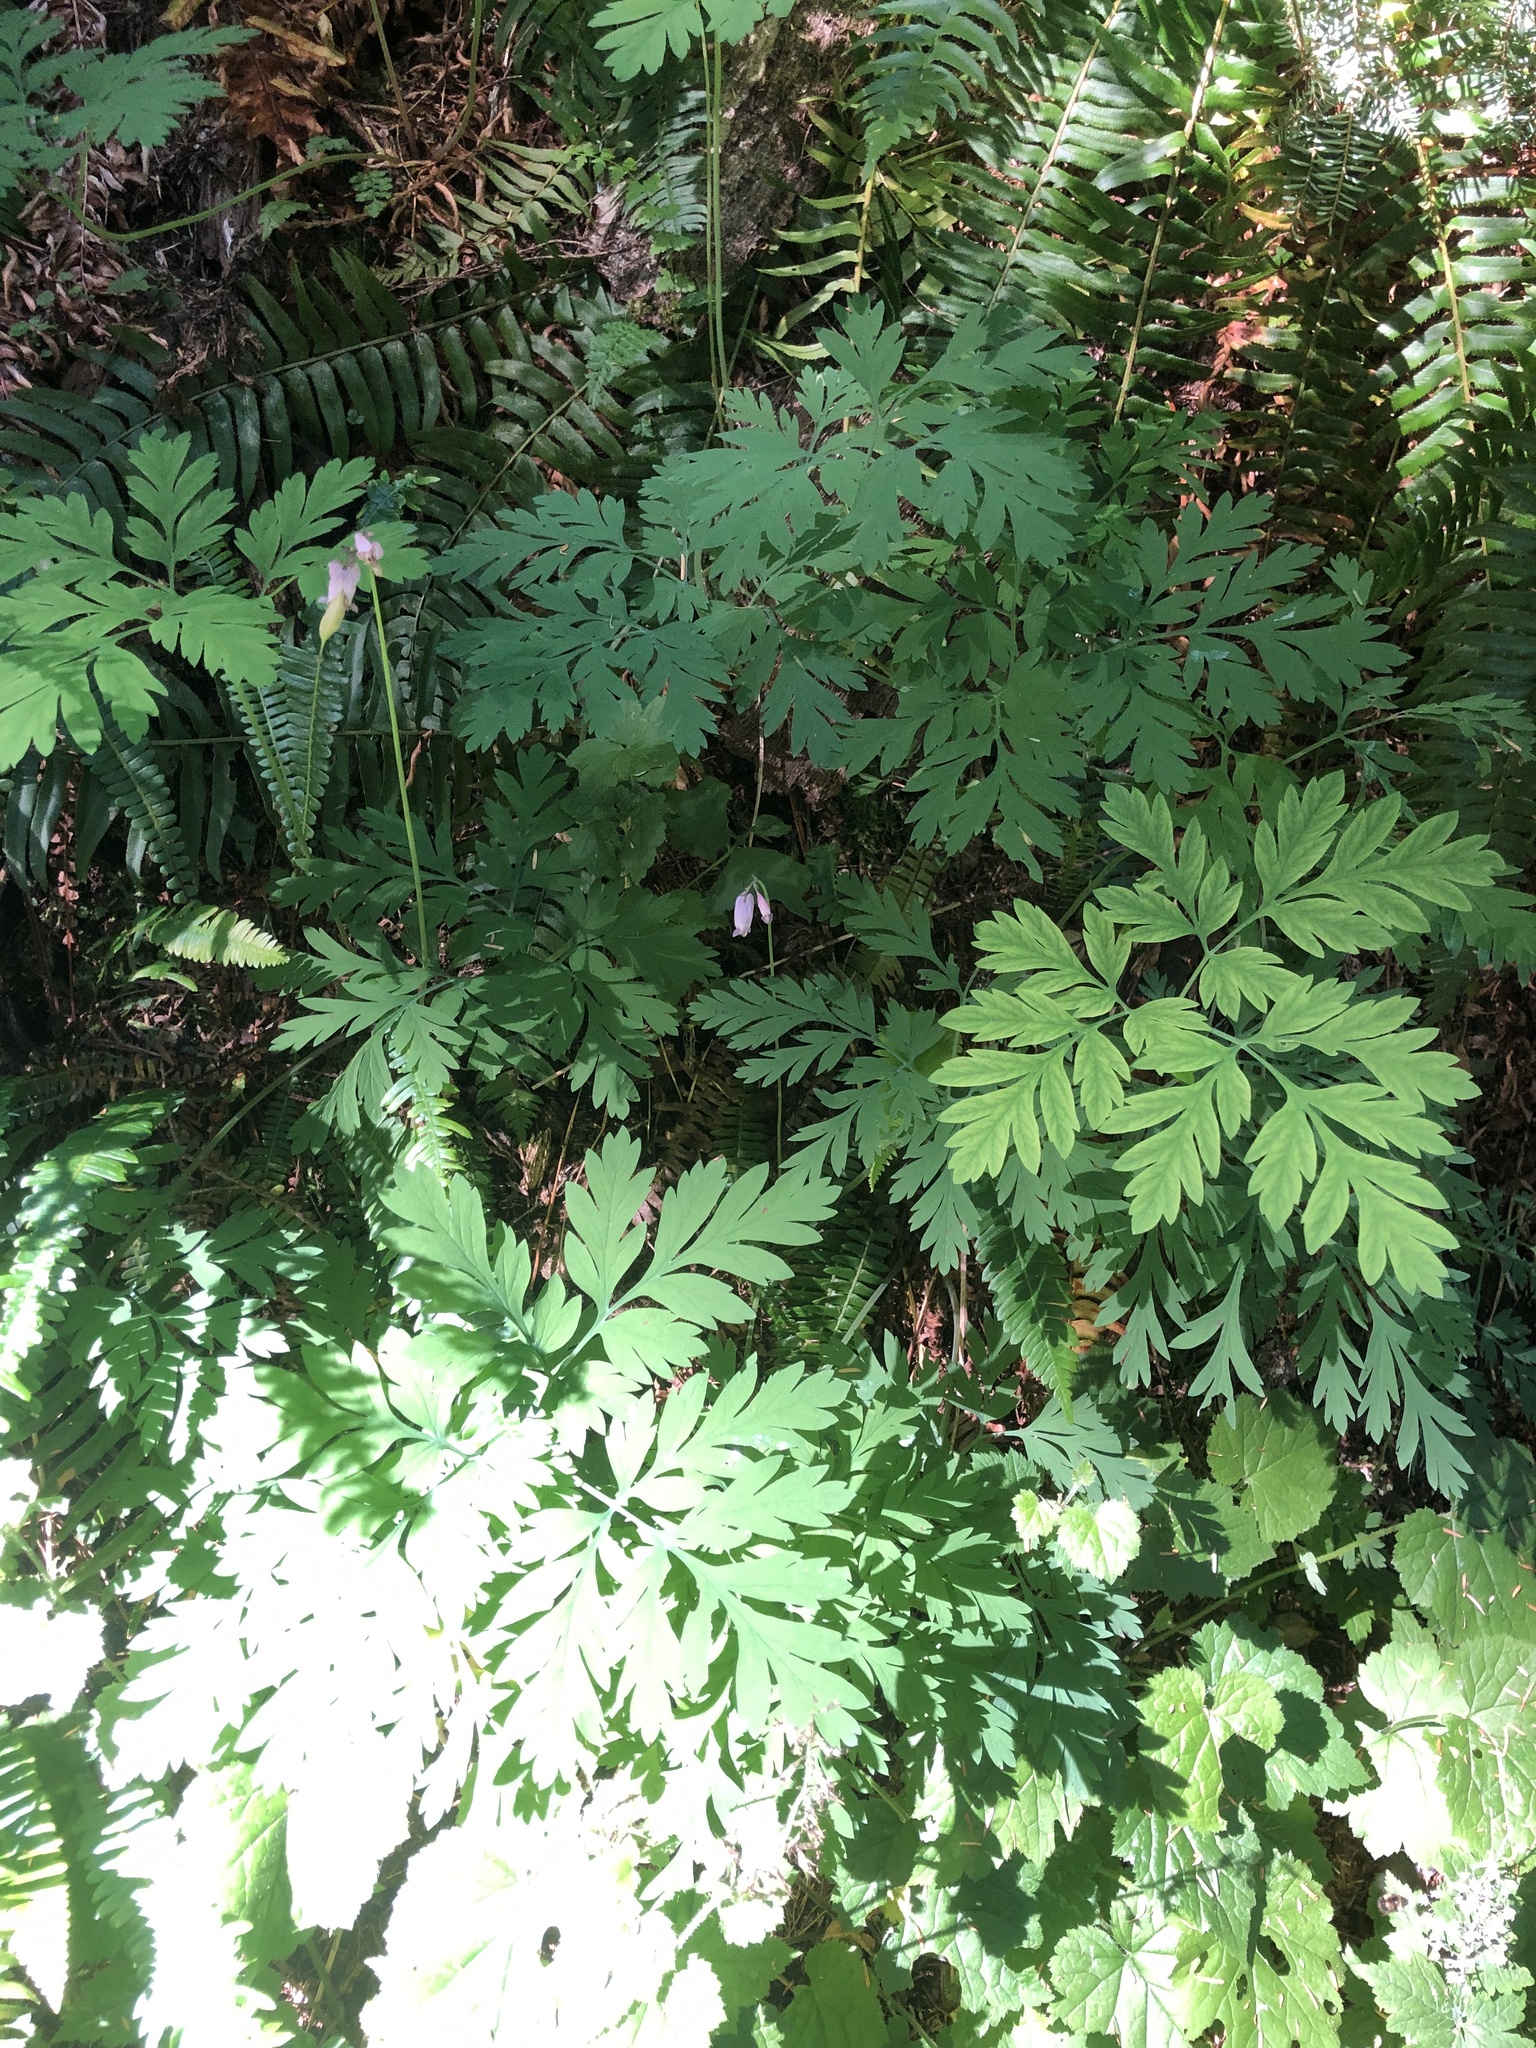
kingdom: Plantae
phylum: Tracheophyta
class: Magnoliopsida
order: Ranunculales
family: Papaveraceae
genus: Dicentra
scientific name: Dicentra formosa
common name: Bleeding-heart
